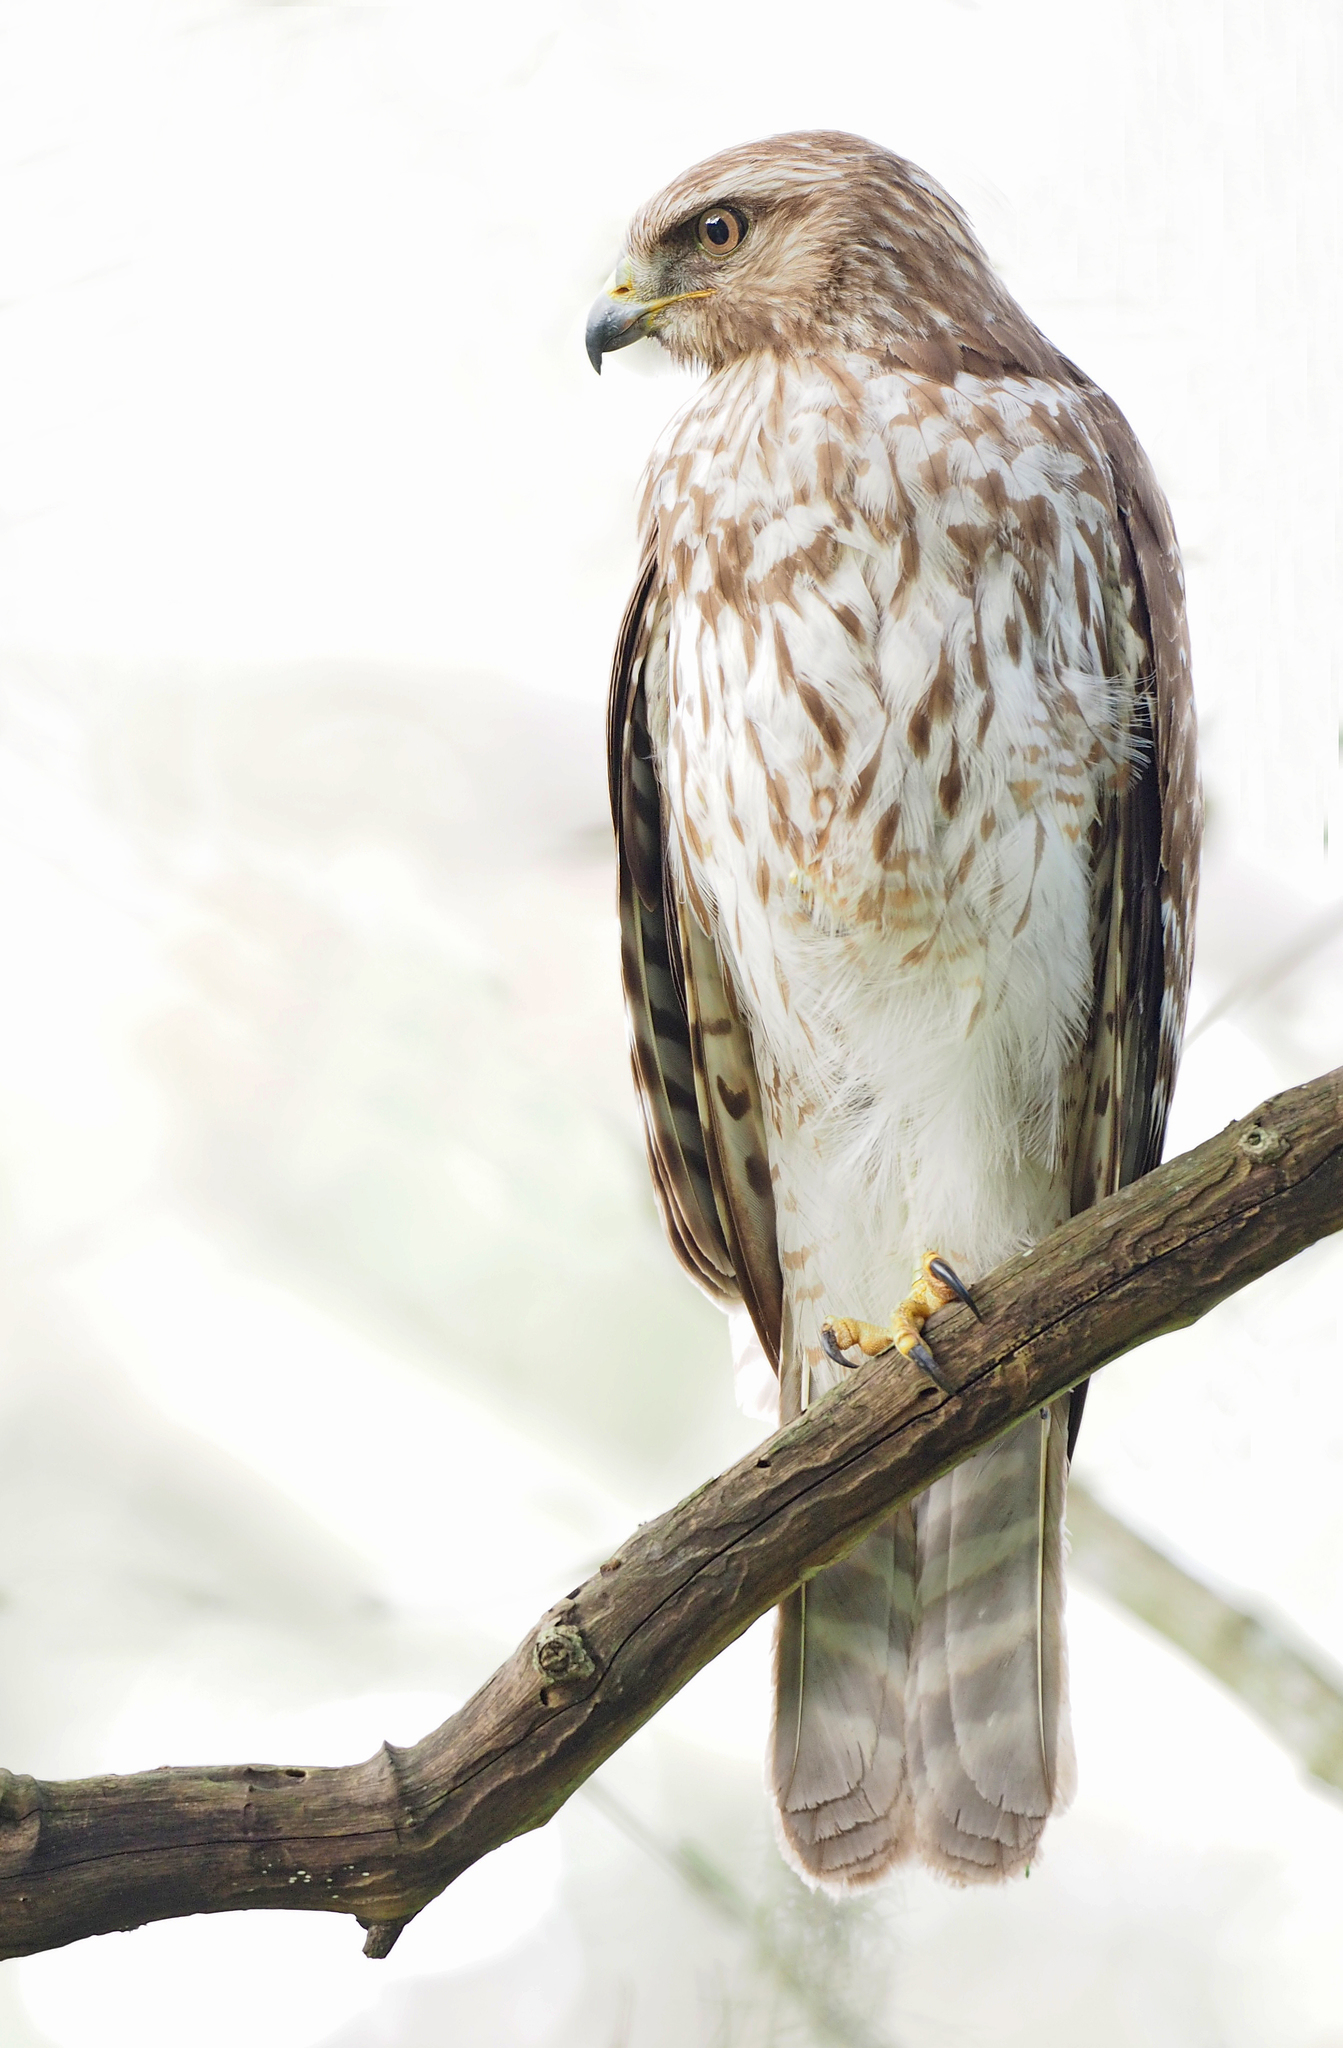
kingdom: Animalia
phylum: Chordata
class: Aves
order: Accipitriformes
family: Accipitridae
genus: Buteo
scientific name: Buteo lineatus
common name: Red-shouldered hawk
